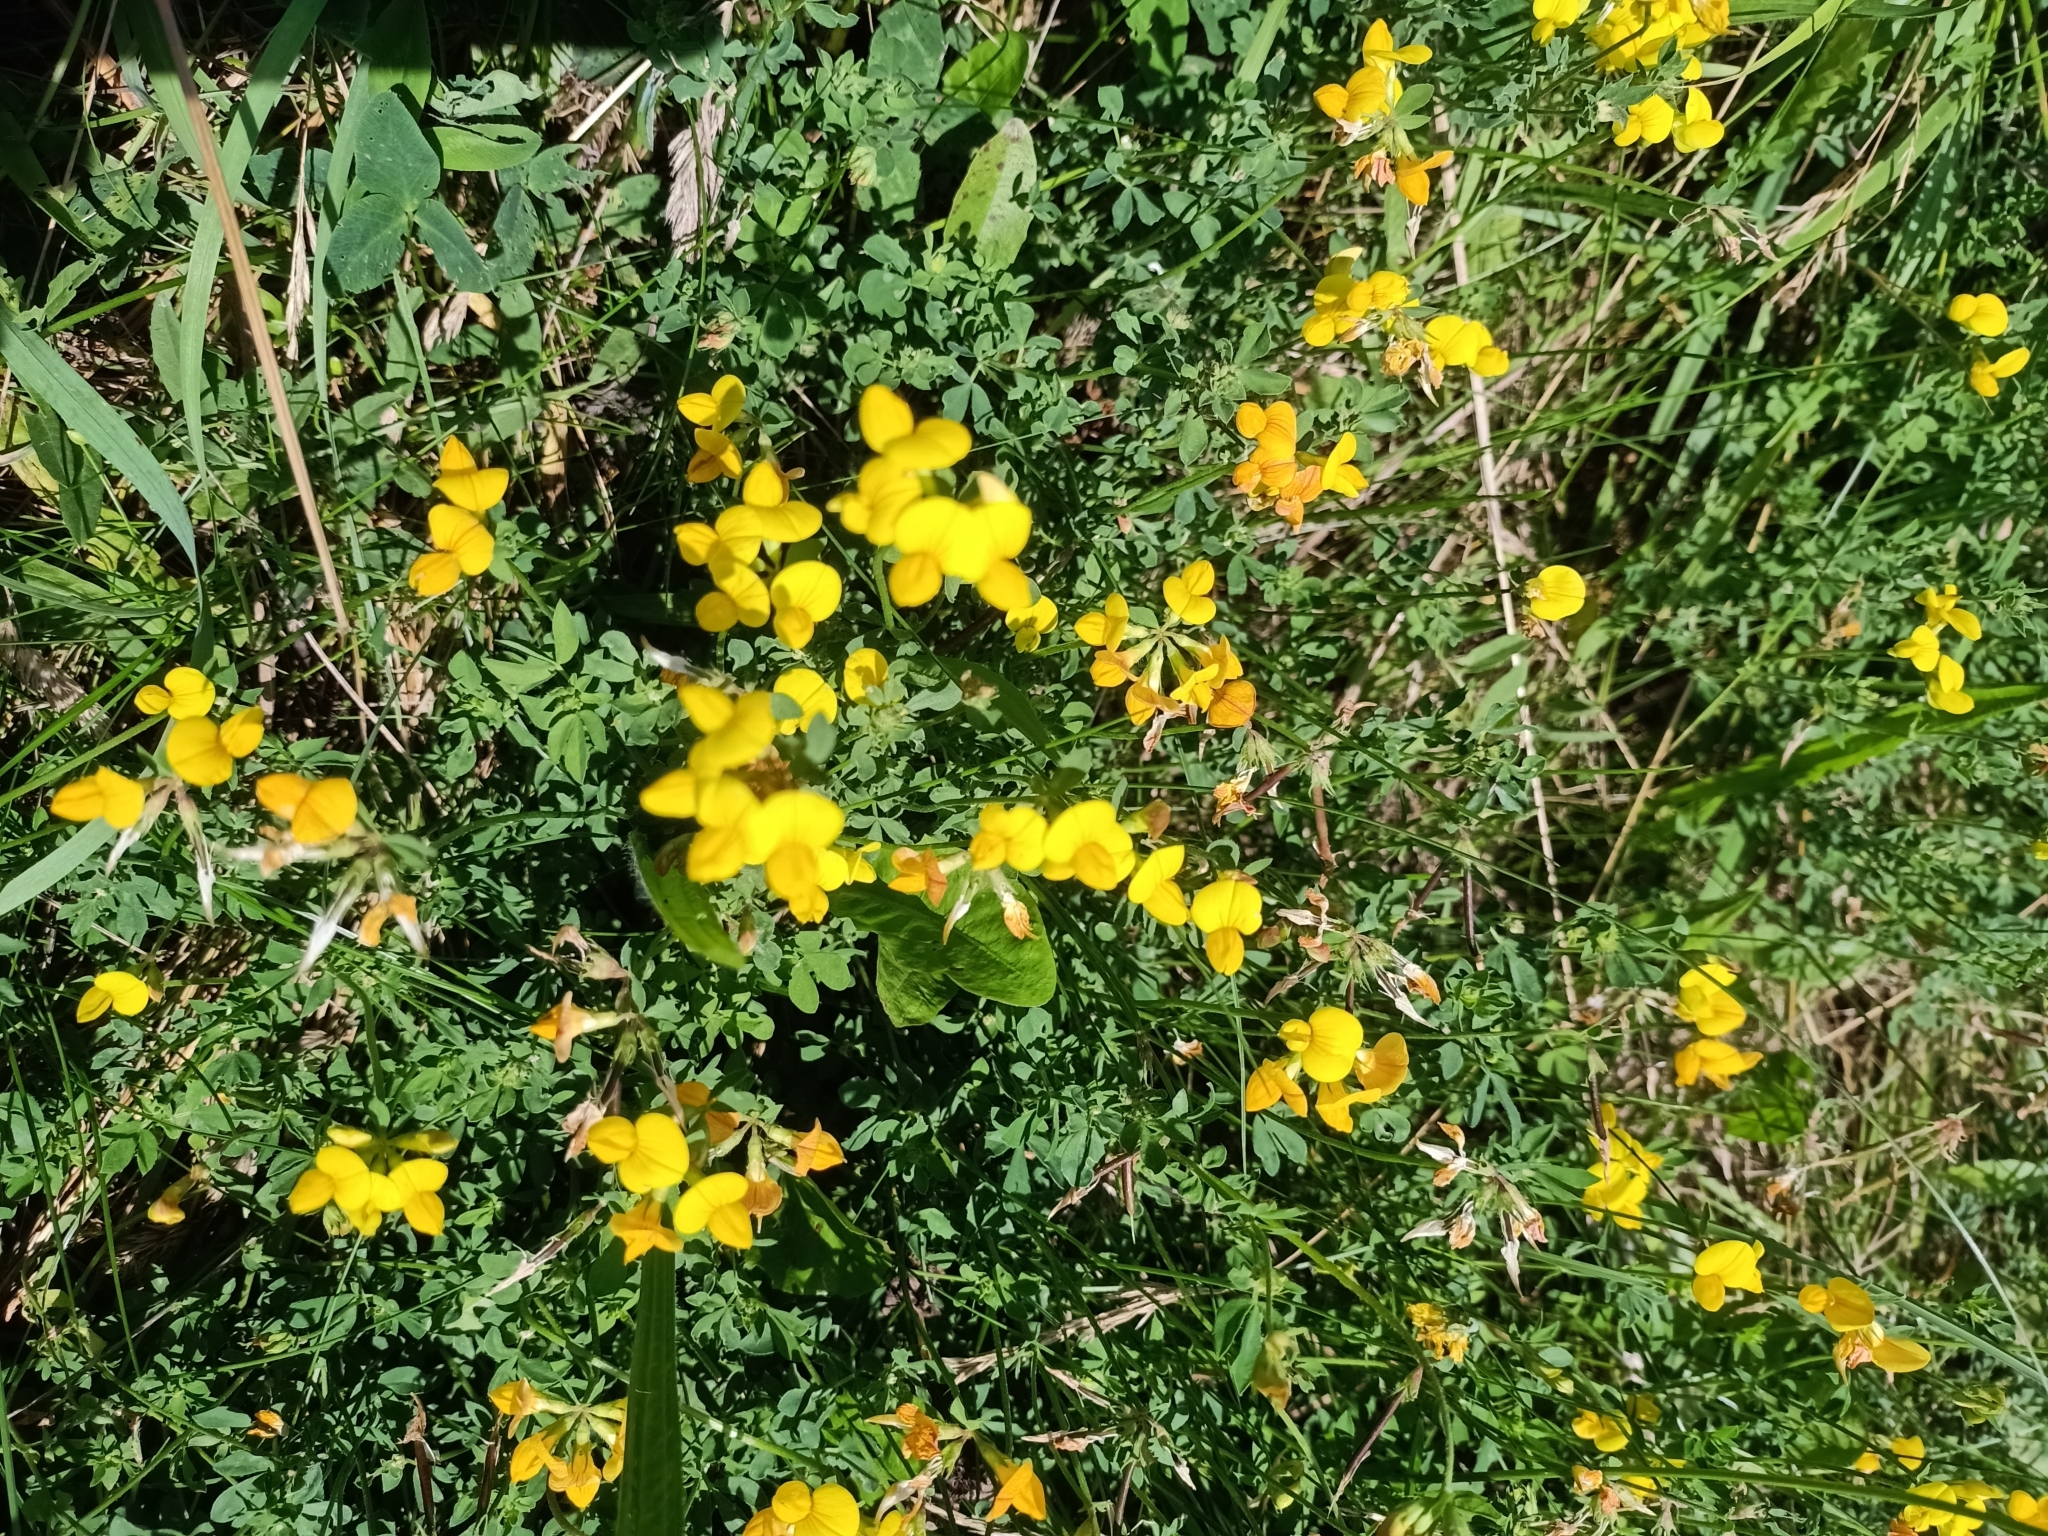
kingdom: Plantae
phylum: Tracheophyta
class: Magnoliopsida
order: Fabales
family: Fabaceae
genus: Lotus
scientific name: Lotus corniculatus
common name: Common bird's-foot-trefoil
